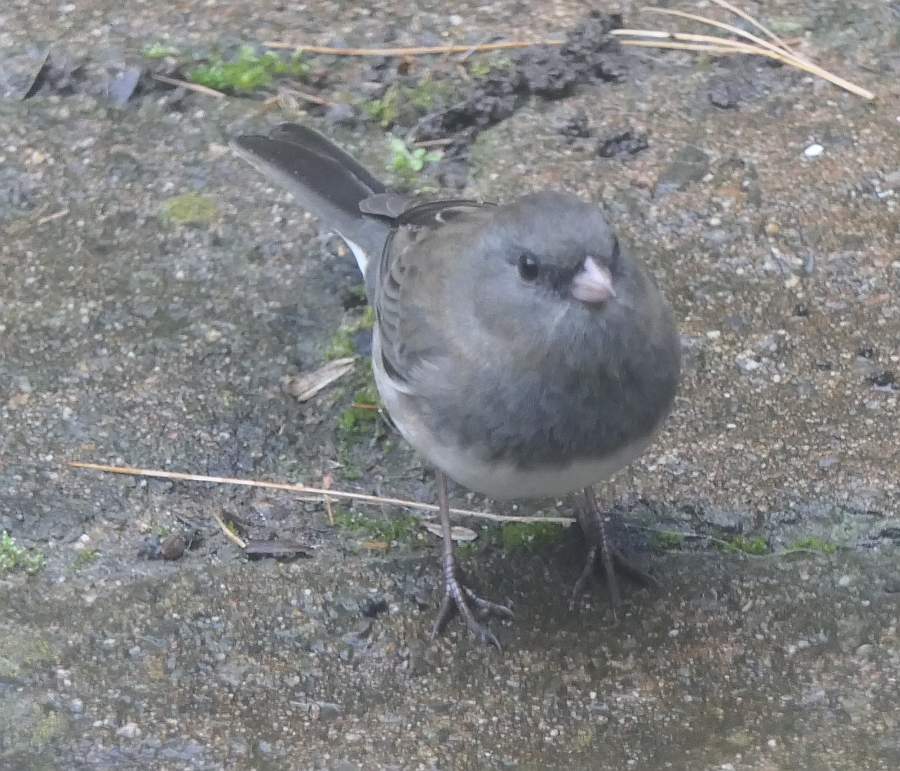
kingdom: Animalia
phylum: Chordata
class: Aves
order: Passeriformes
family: Passerellidae
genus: Junco
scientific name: Junco hyemalis
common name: Dark-eyed junco
